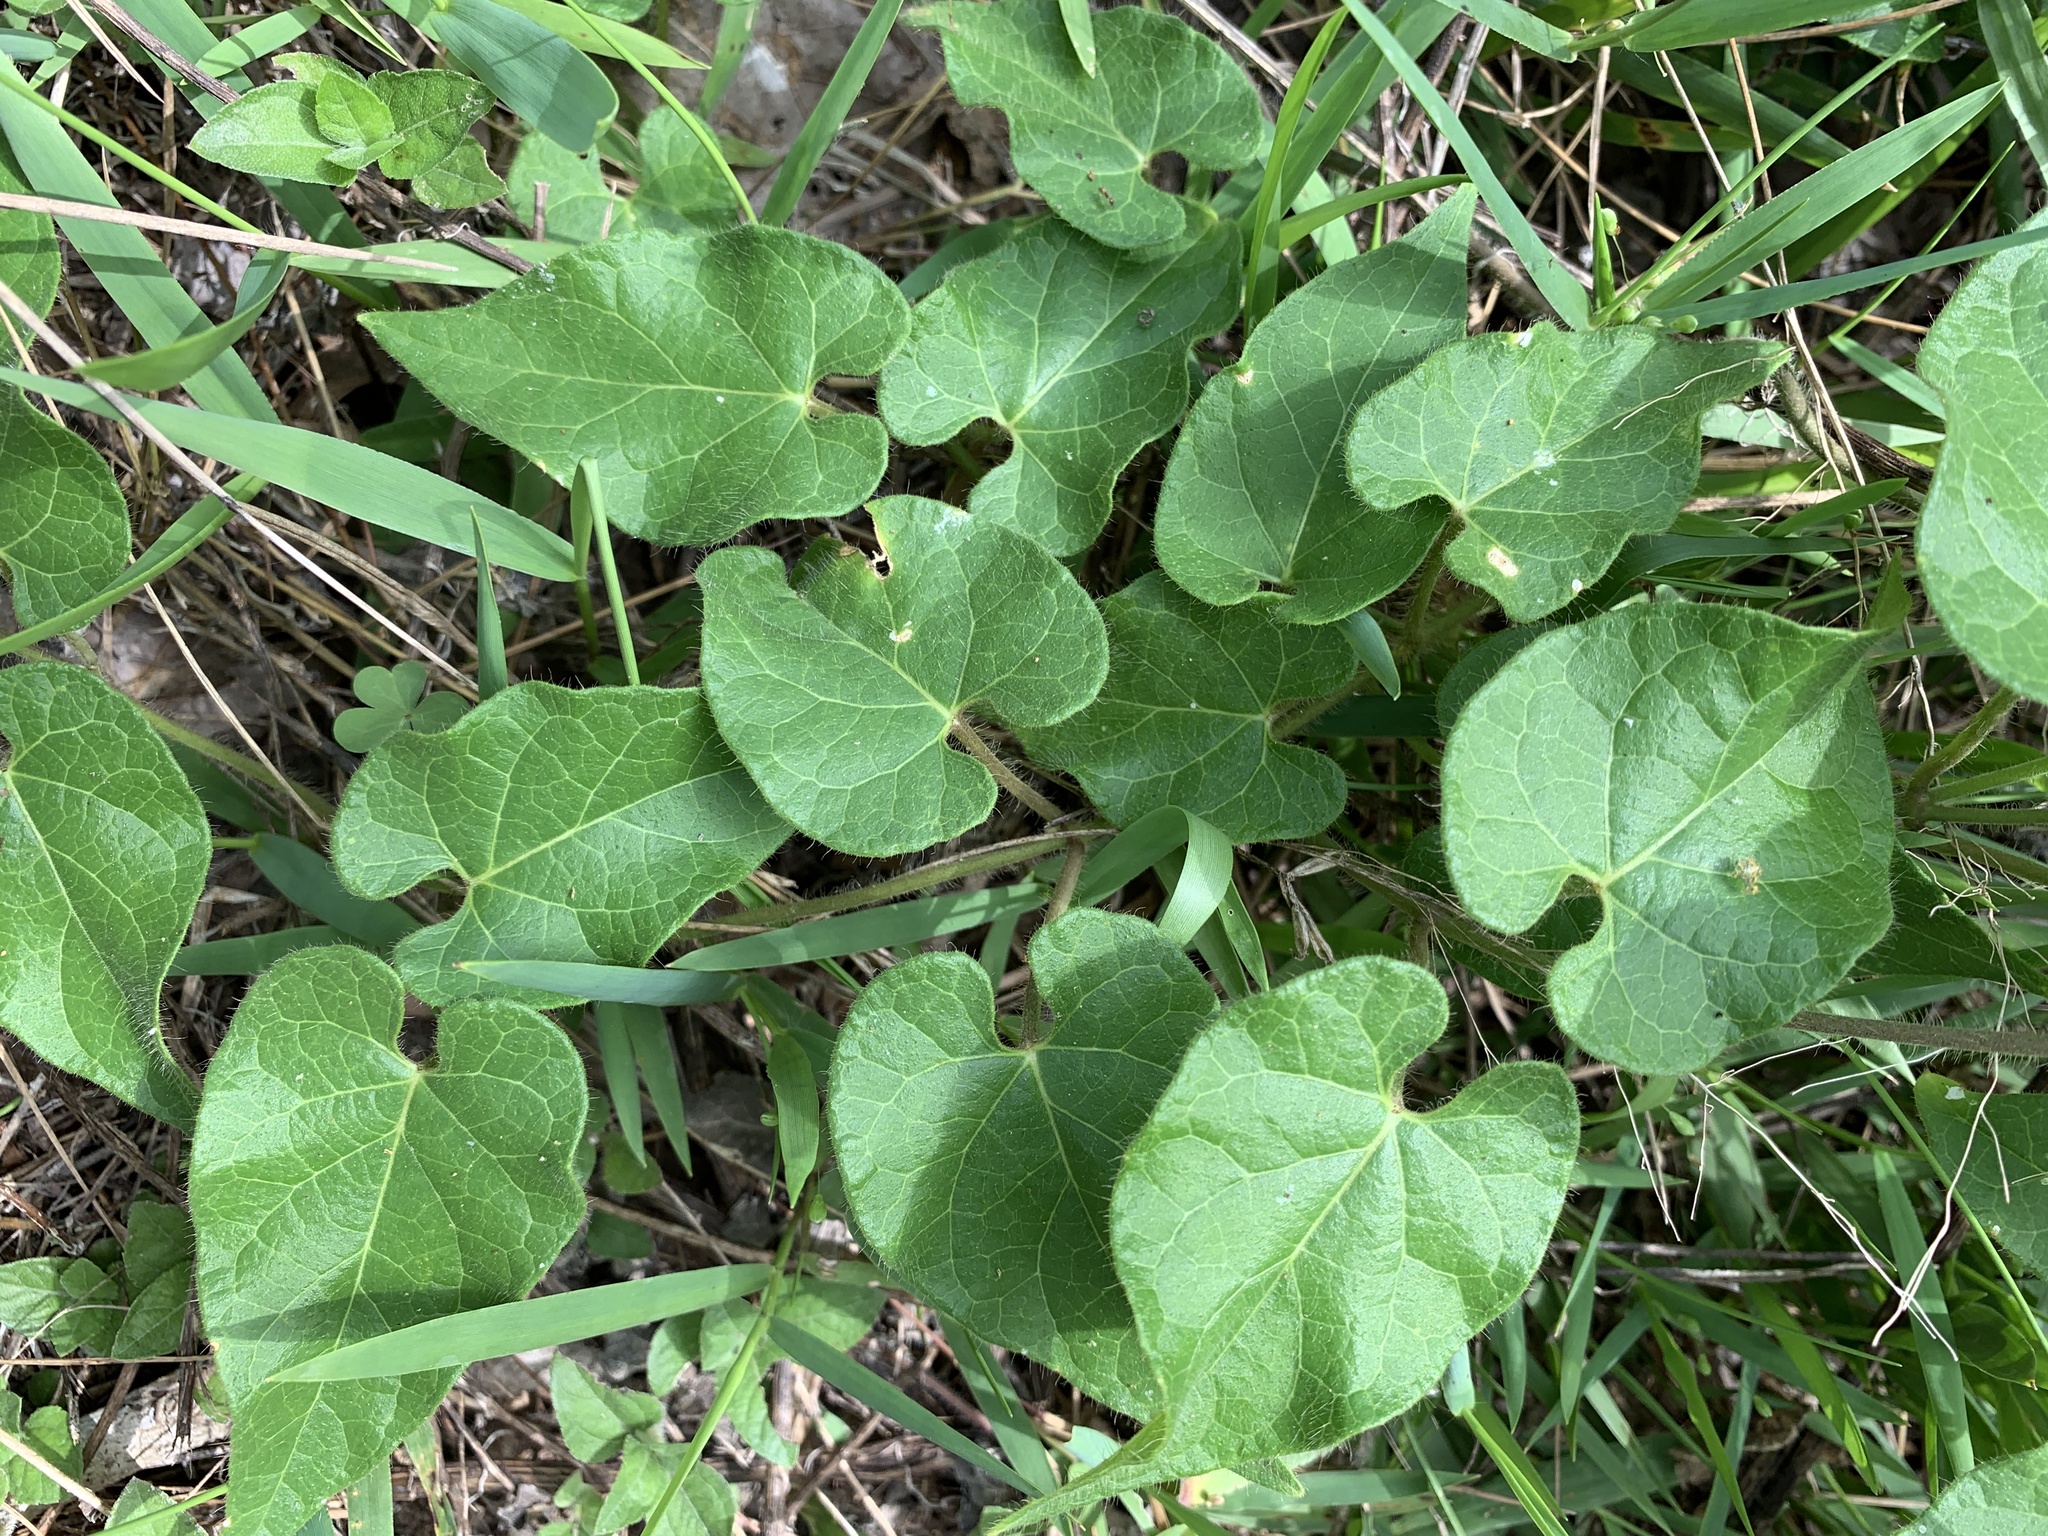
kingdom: Plantae
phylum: Tracheophyta
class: Magnoliopsida
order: Gentianales
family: Apocynaceae
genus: Dictyanthus
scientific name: Dictyanthus reticulatus
